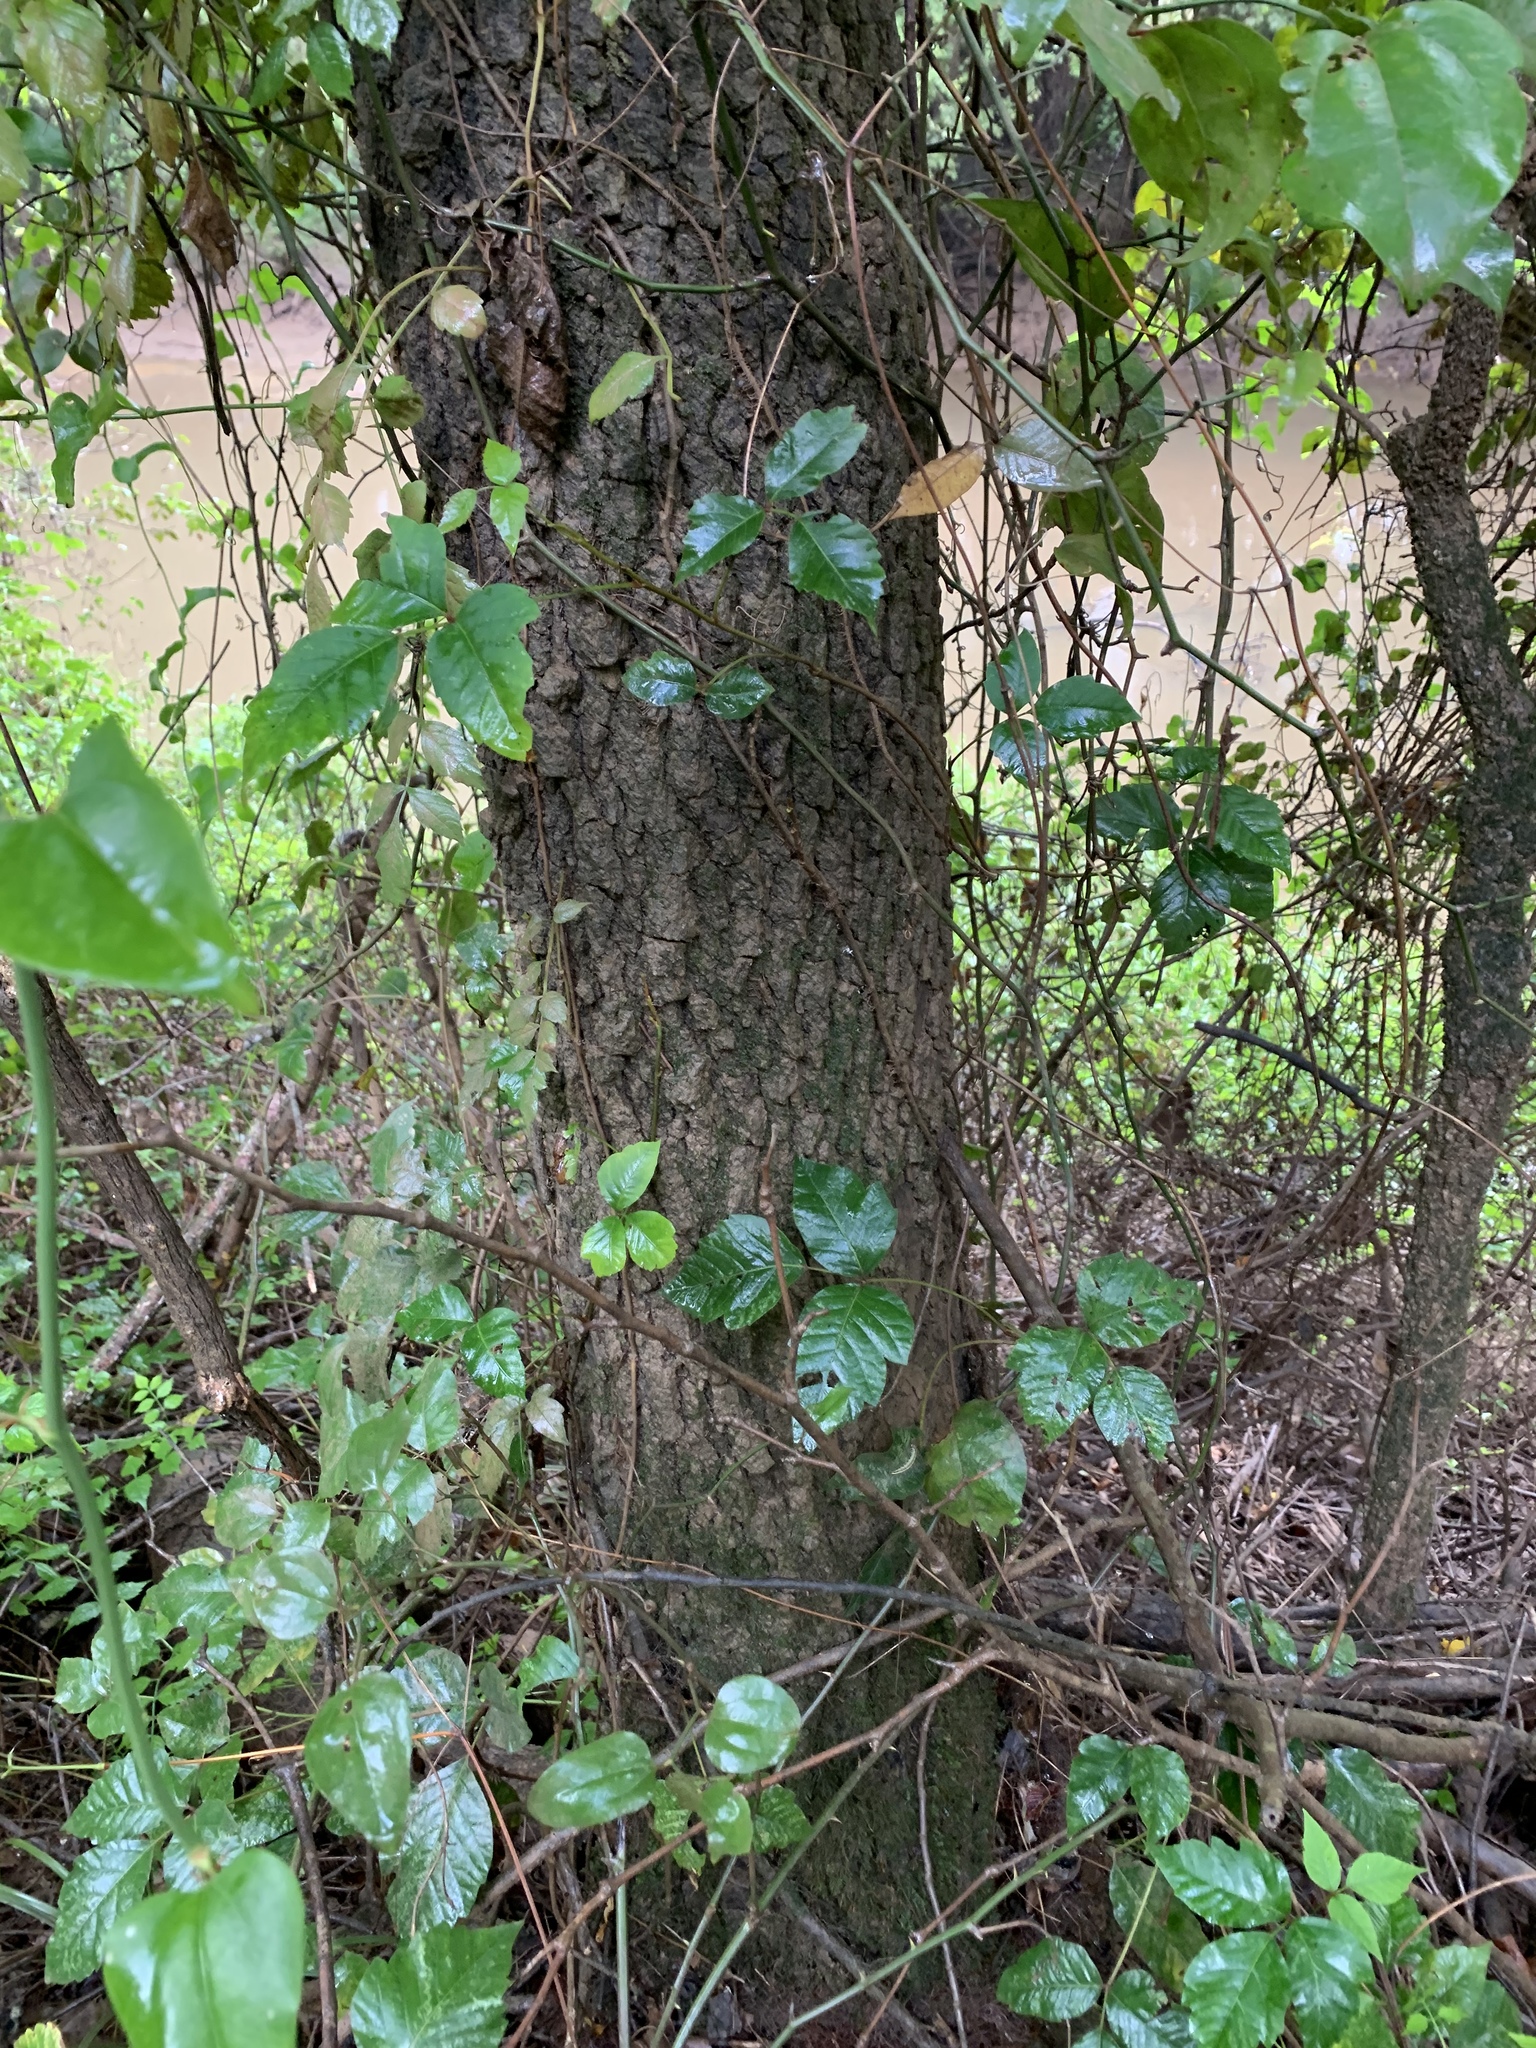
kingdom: Plantae
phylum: Tracheophyta
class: Magnoliopsida
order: Sapindales
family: Anacardiaceae
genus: Toxicodendron
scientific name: Toxicodendron radicans
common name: Poison ivy
